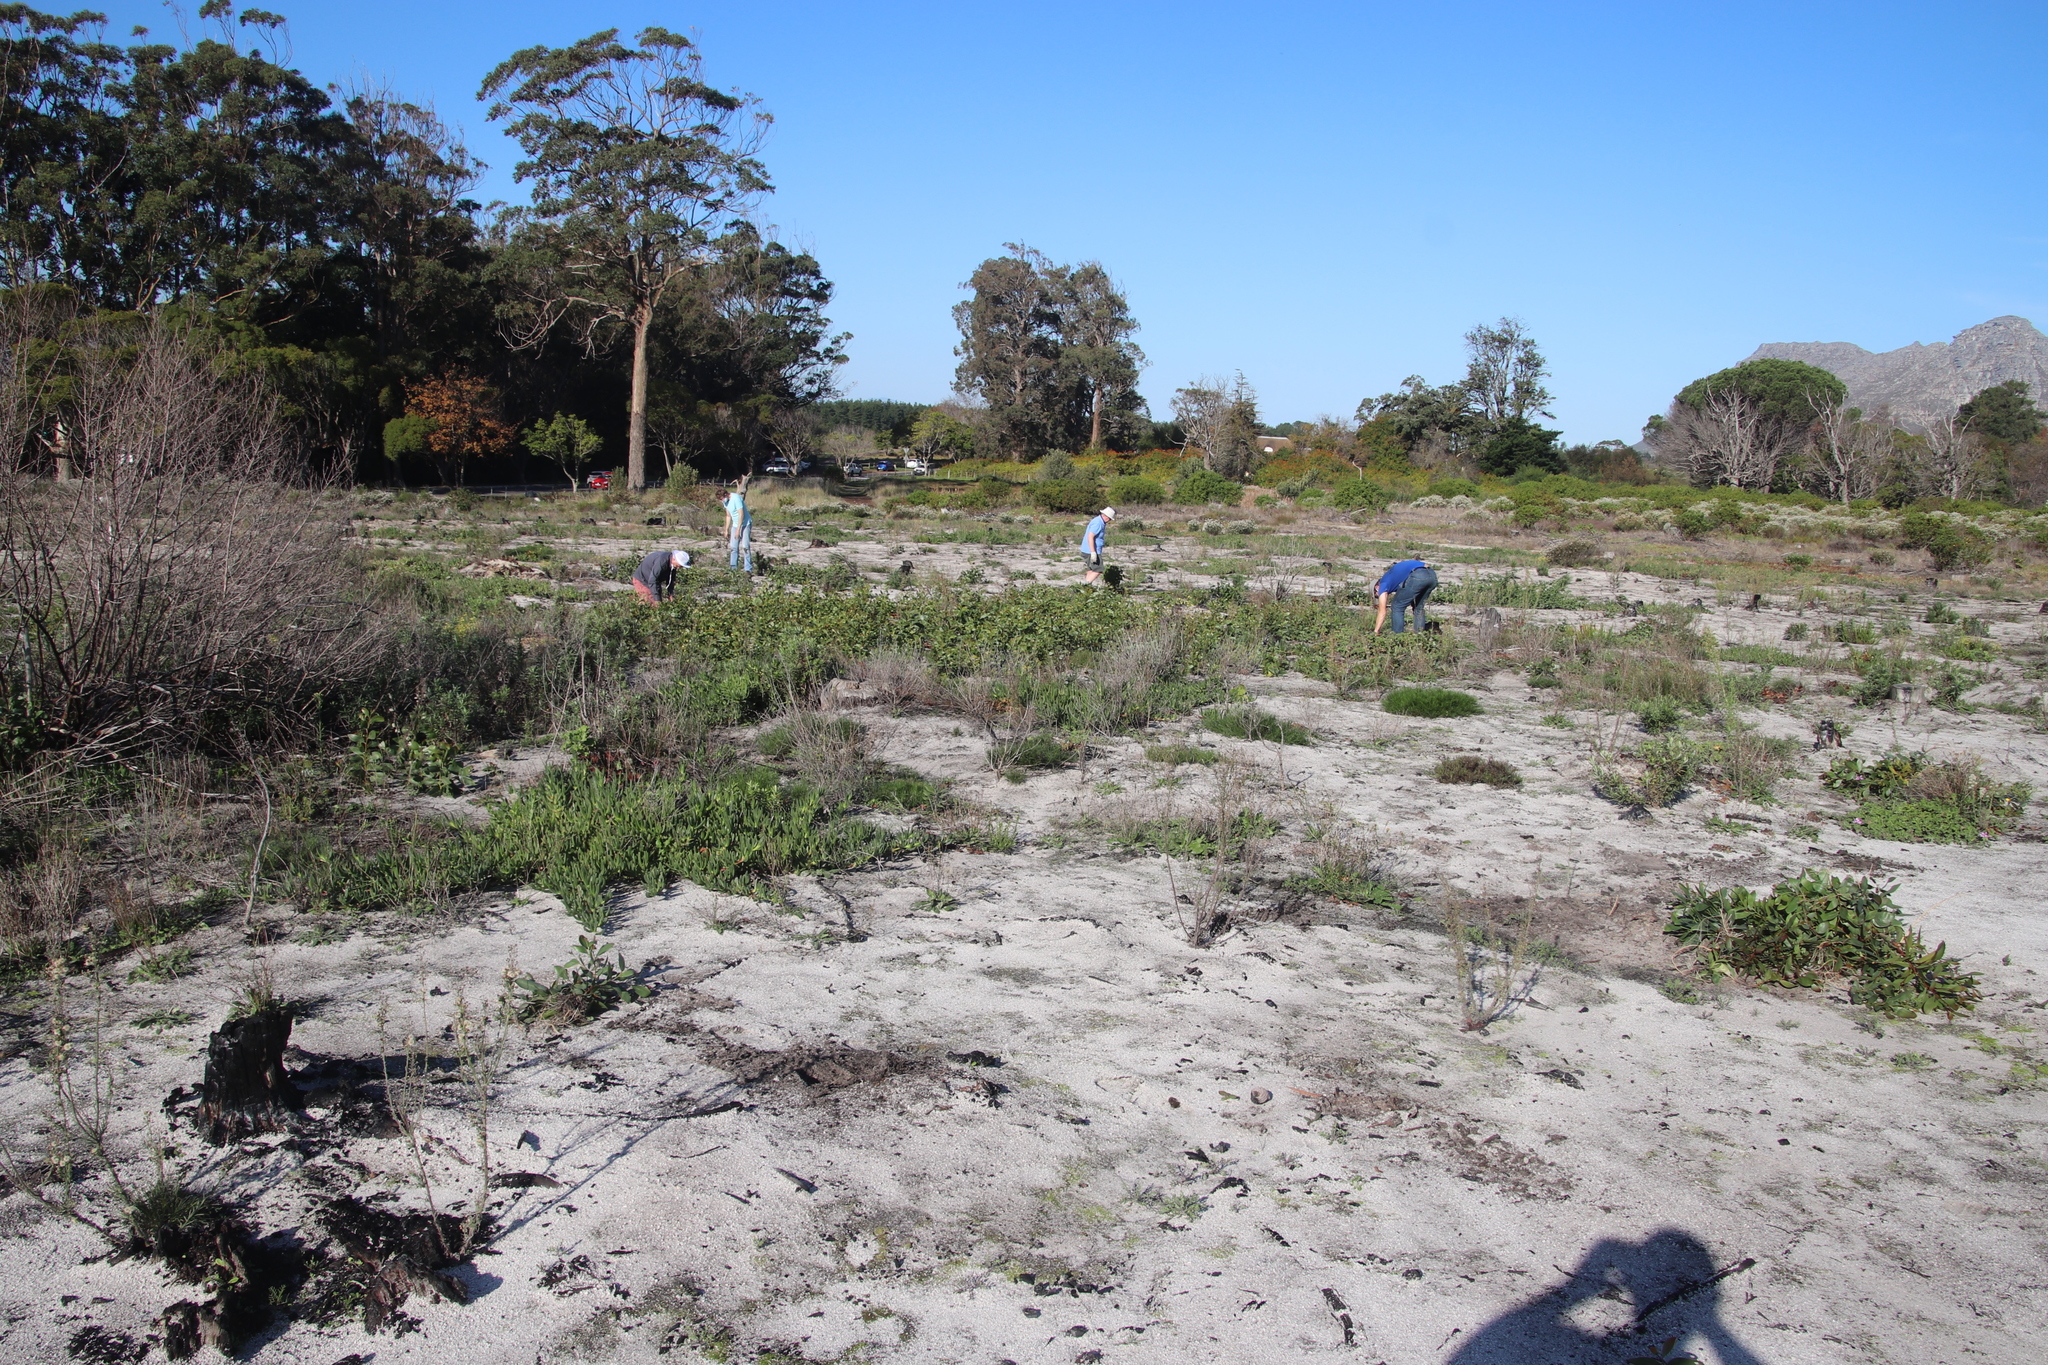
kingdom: Plantae
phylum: Tracheophyta
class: Magnoliopsida
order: Caryophyllales
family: Aizoaceae
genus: Carpobrotus
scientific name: Carpobrotus edulis
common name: Hottentot-fig
